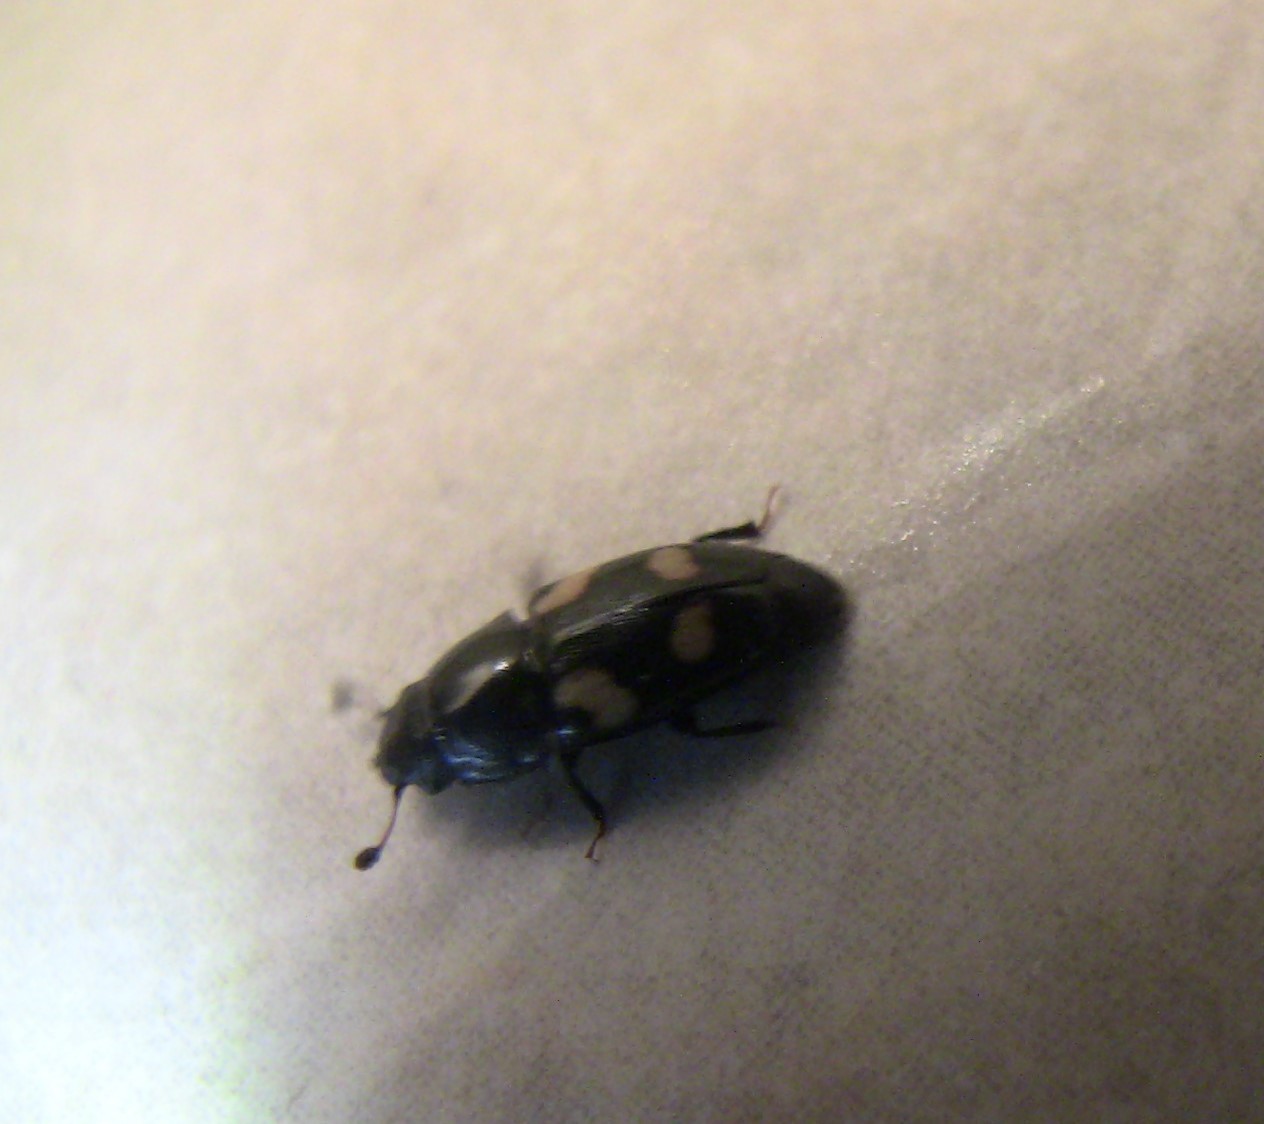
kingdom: Animalia
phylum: Arthropoda
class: Insecta
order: Coleoptera
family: Nitidulidae
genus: Glischrochilus
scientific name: Glischrochilus quadrisignatus
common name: Picnic beetle
